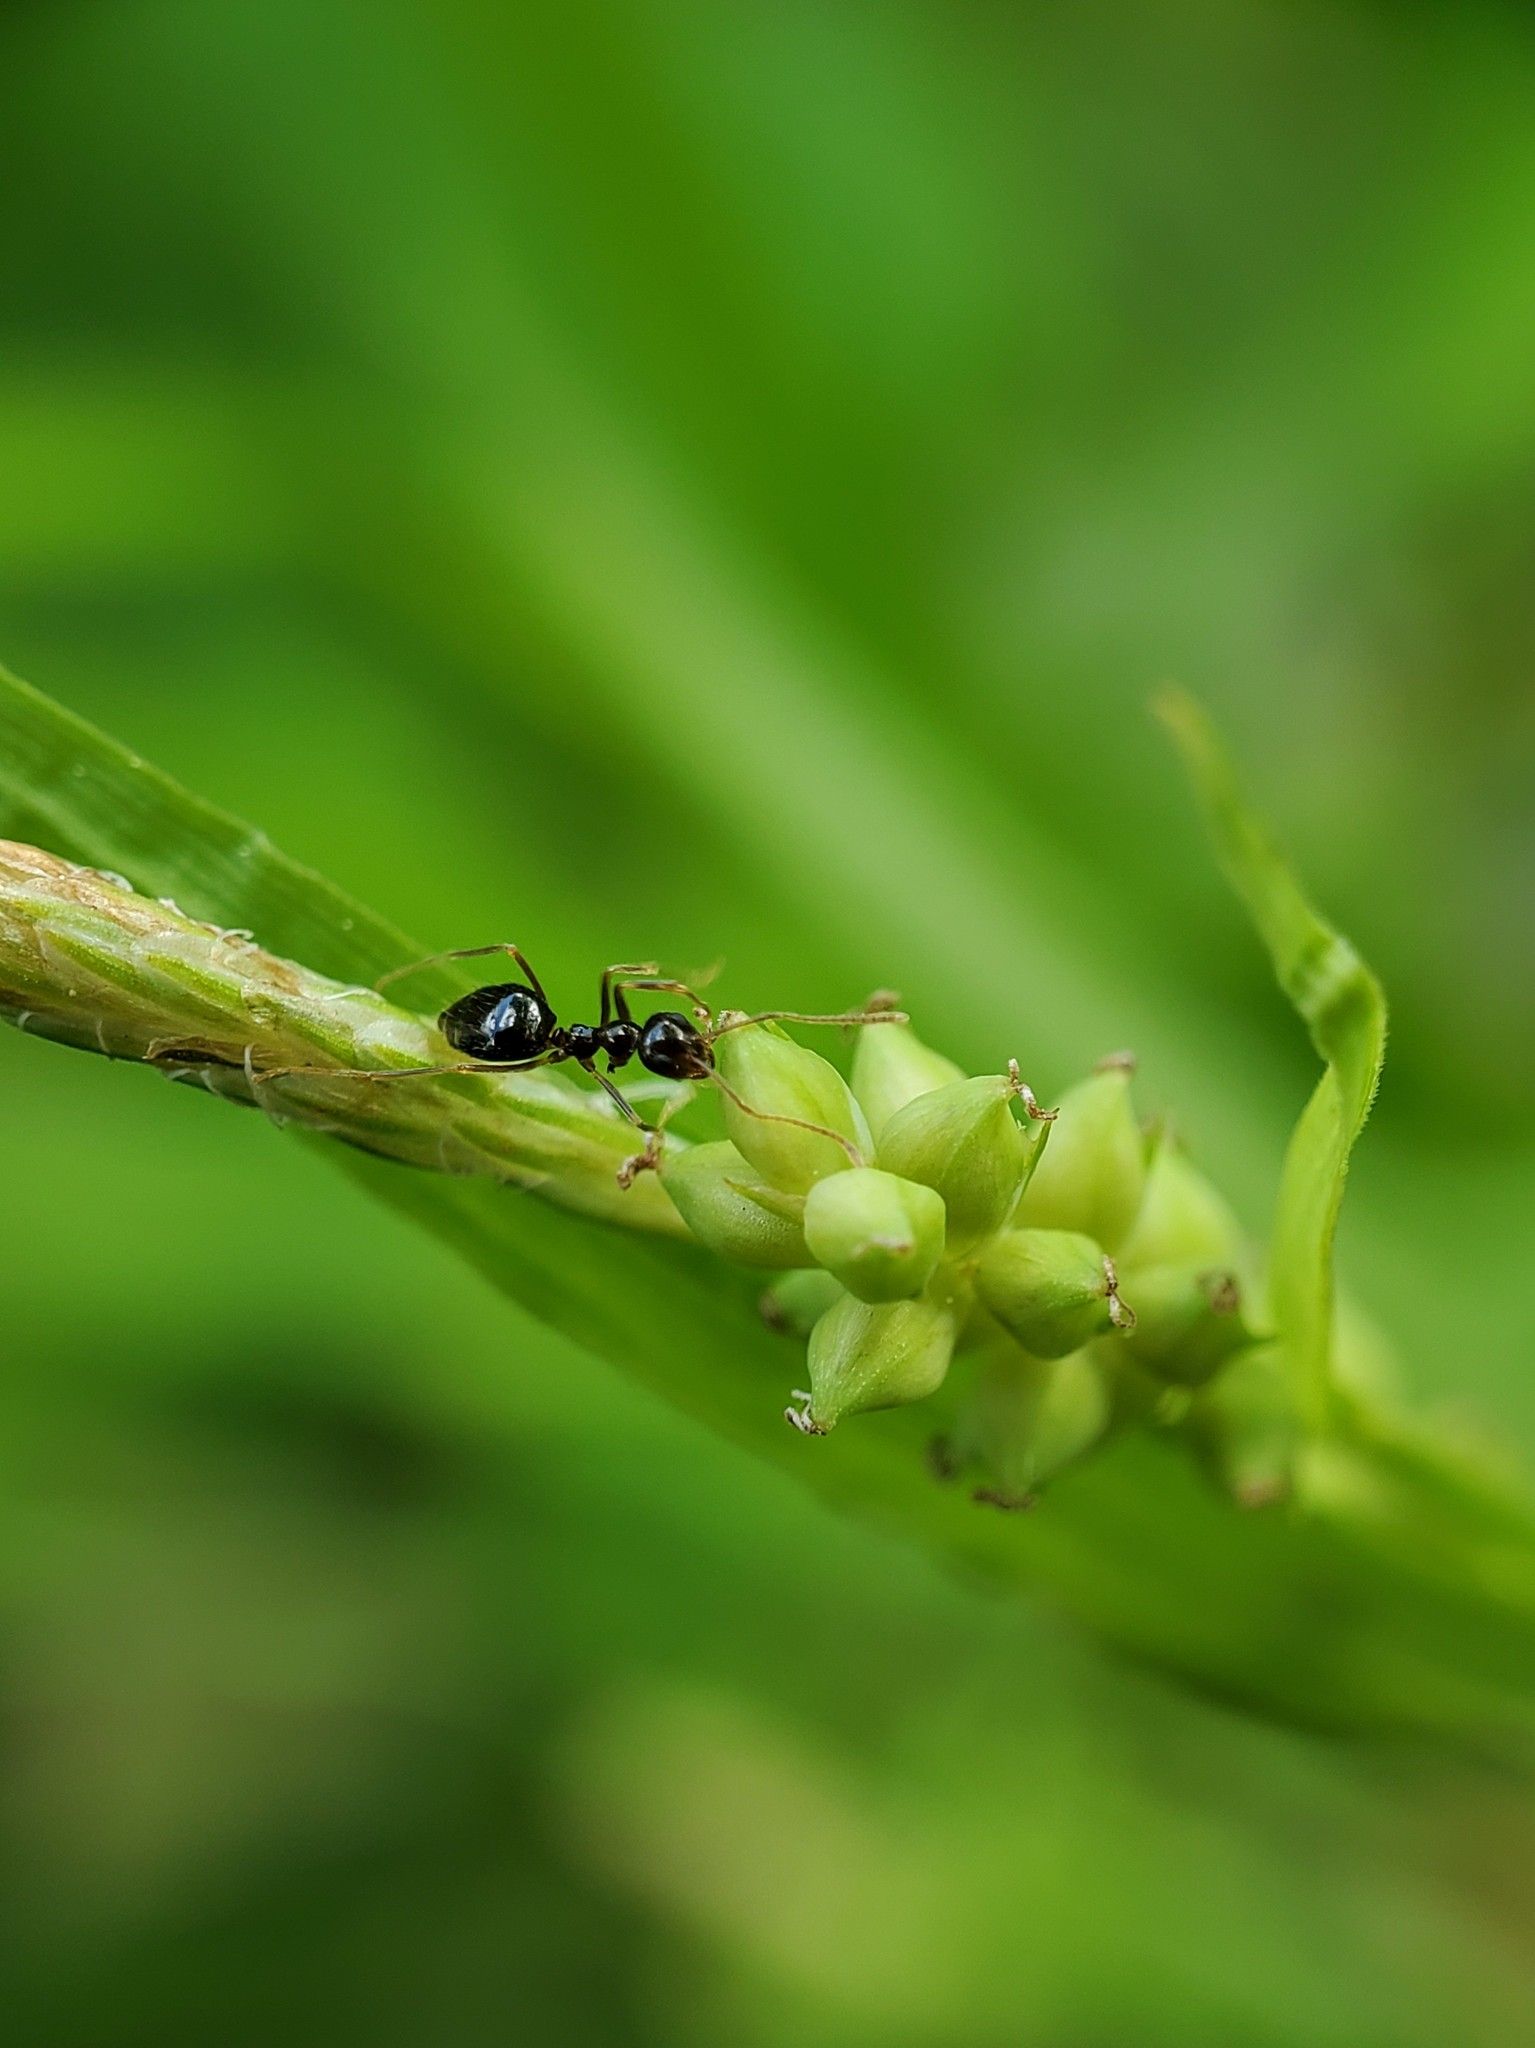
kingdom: Animalia
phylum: Arthropoda
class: Insecta
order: Hymenoptera
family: Formicidae
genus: Prenolepis
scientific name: Prenolepis imparis
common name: Small honey ant
